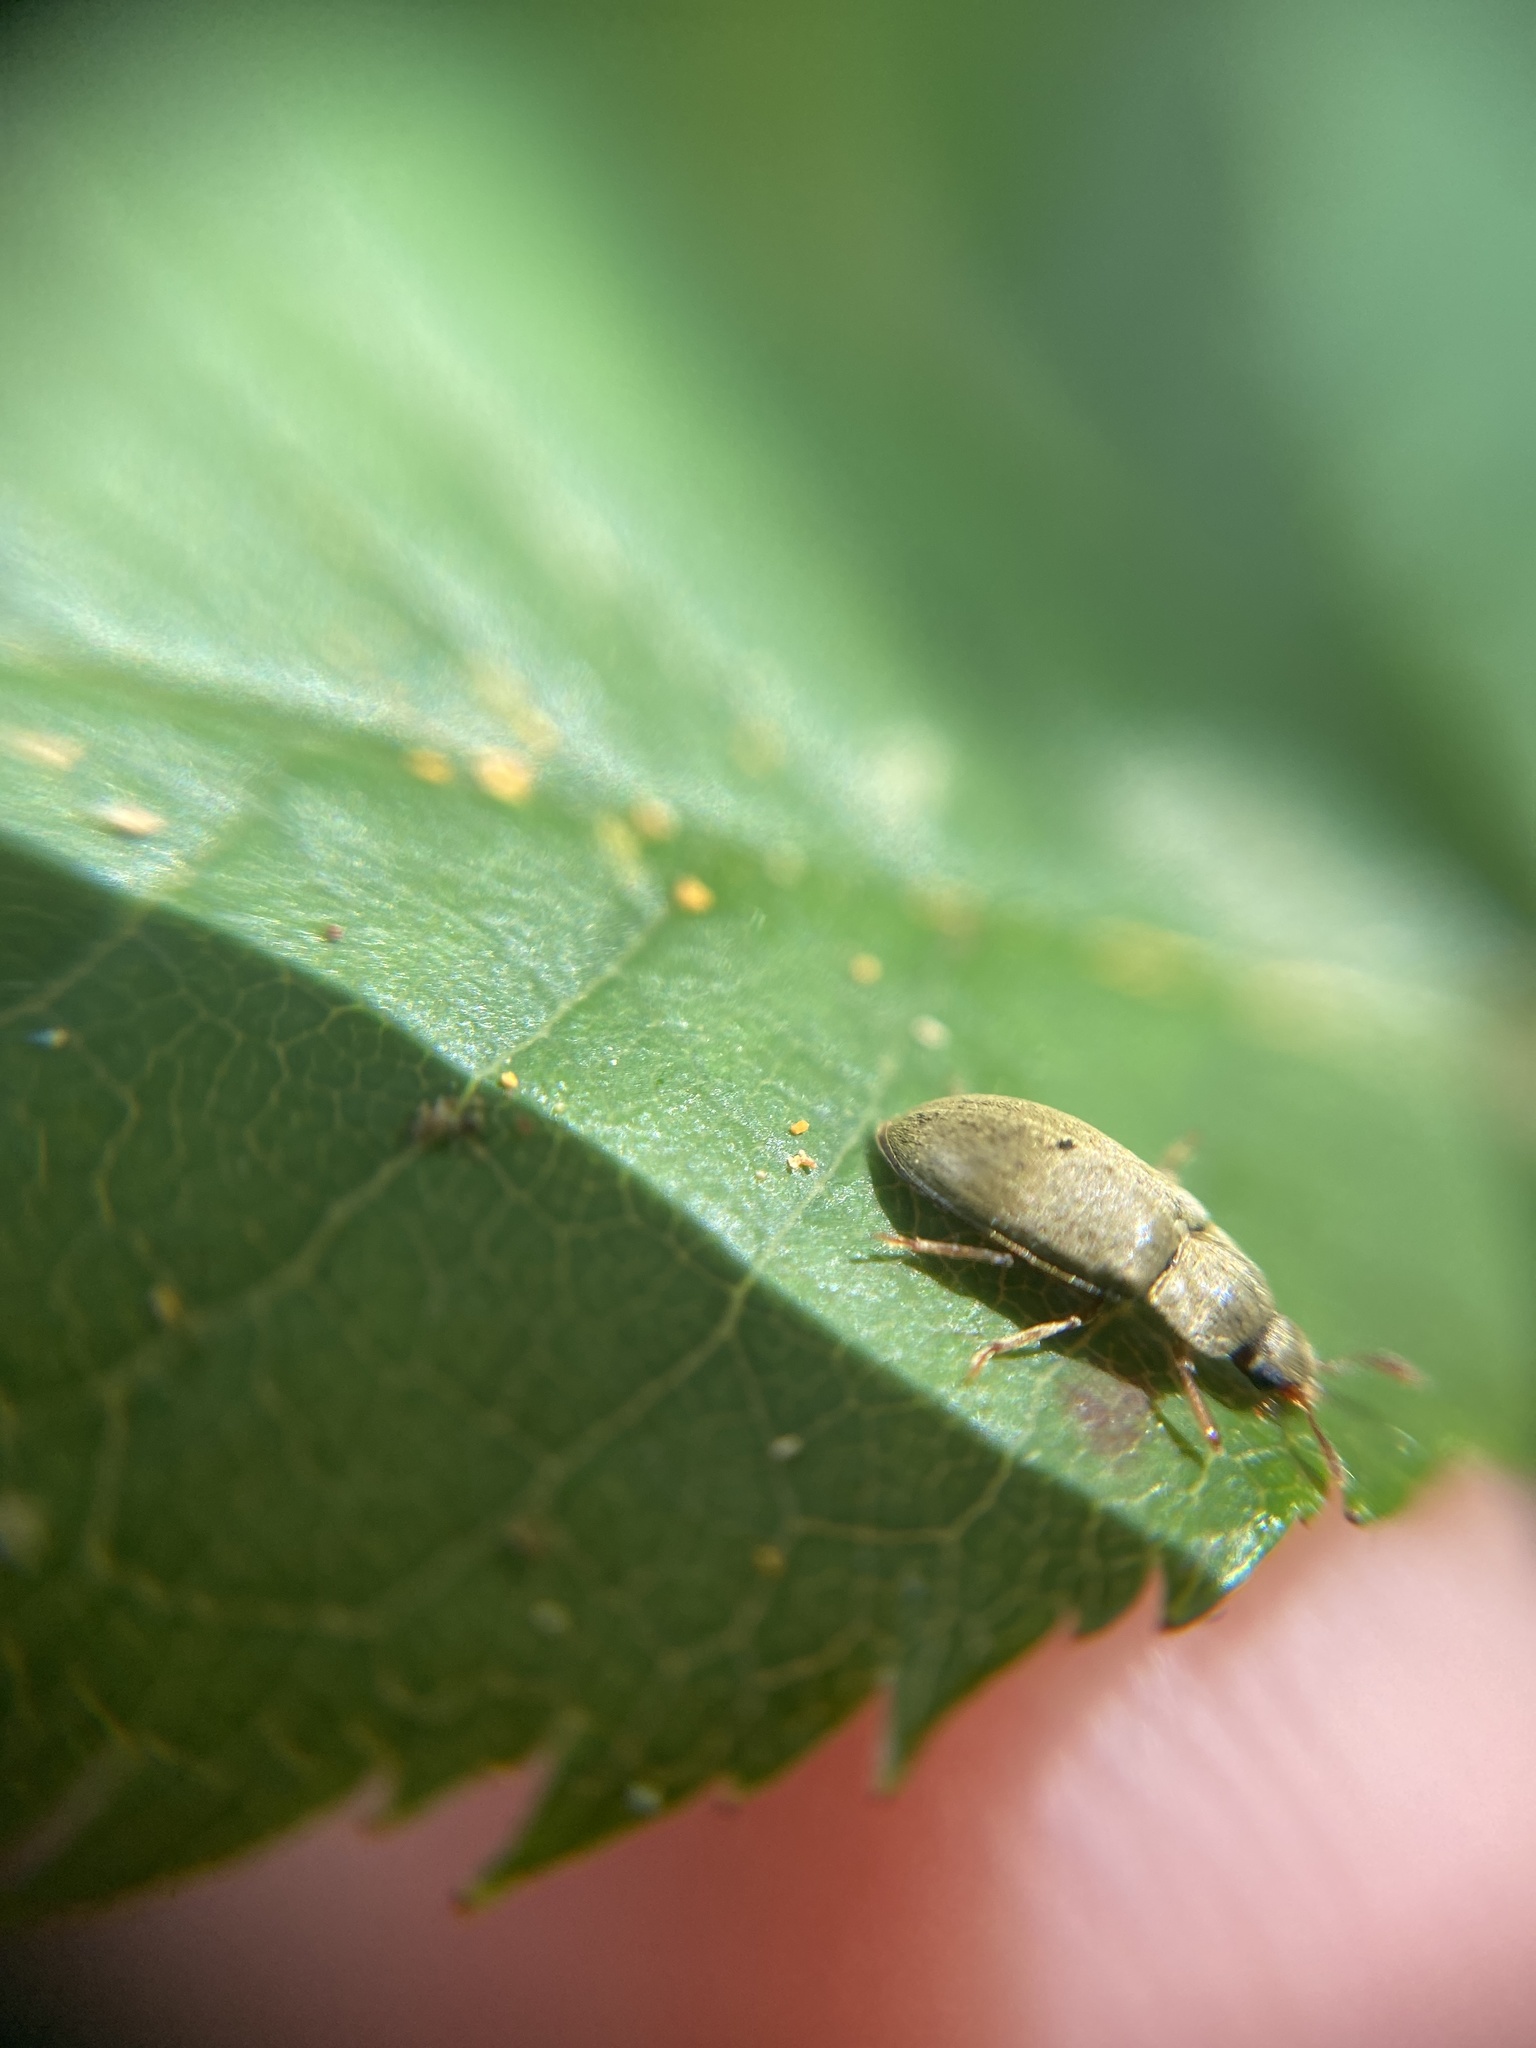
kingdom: Animalia
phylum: Arthropoda
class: Insecta
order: Coleoptera
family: Byturidae
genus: Byturus
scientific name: Byturus tomentosus
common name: Beetle
